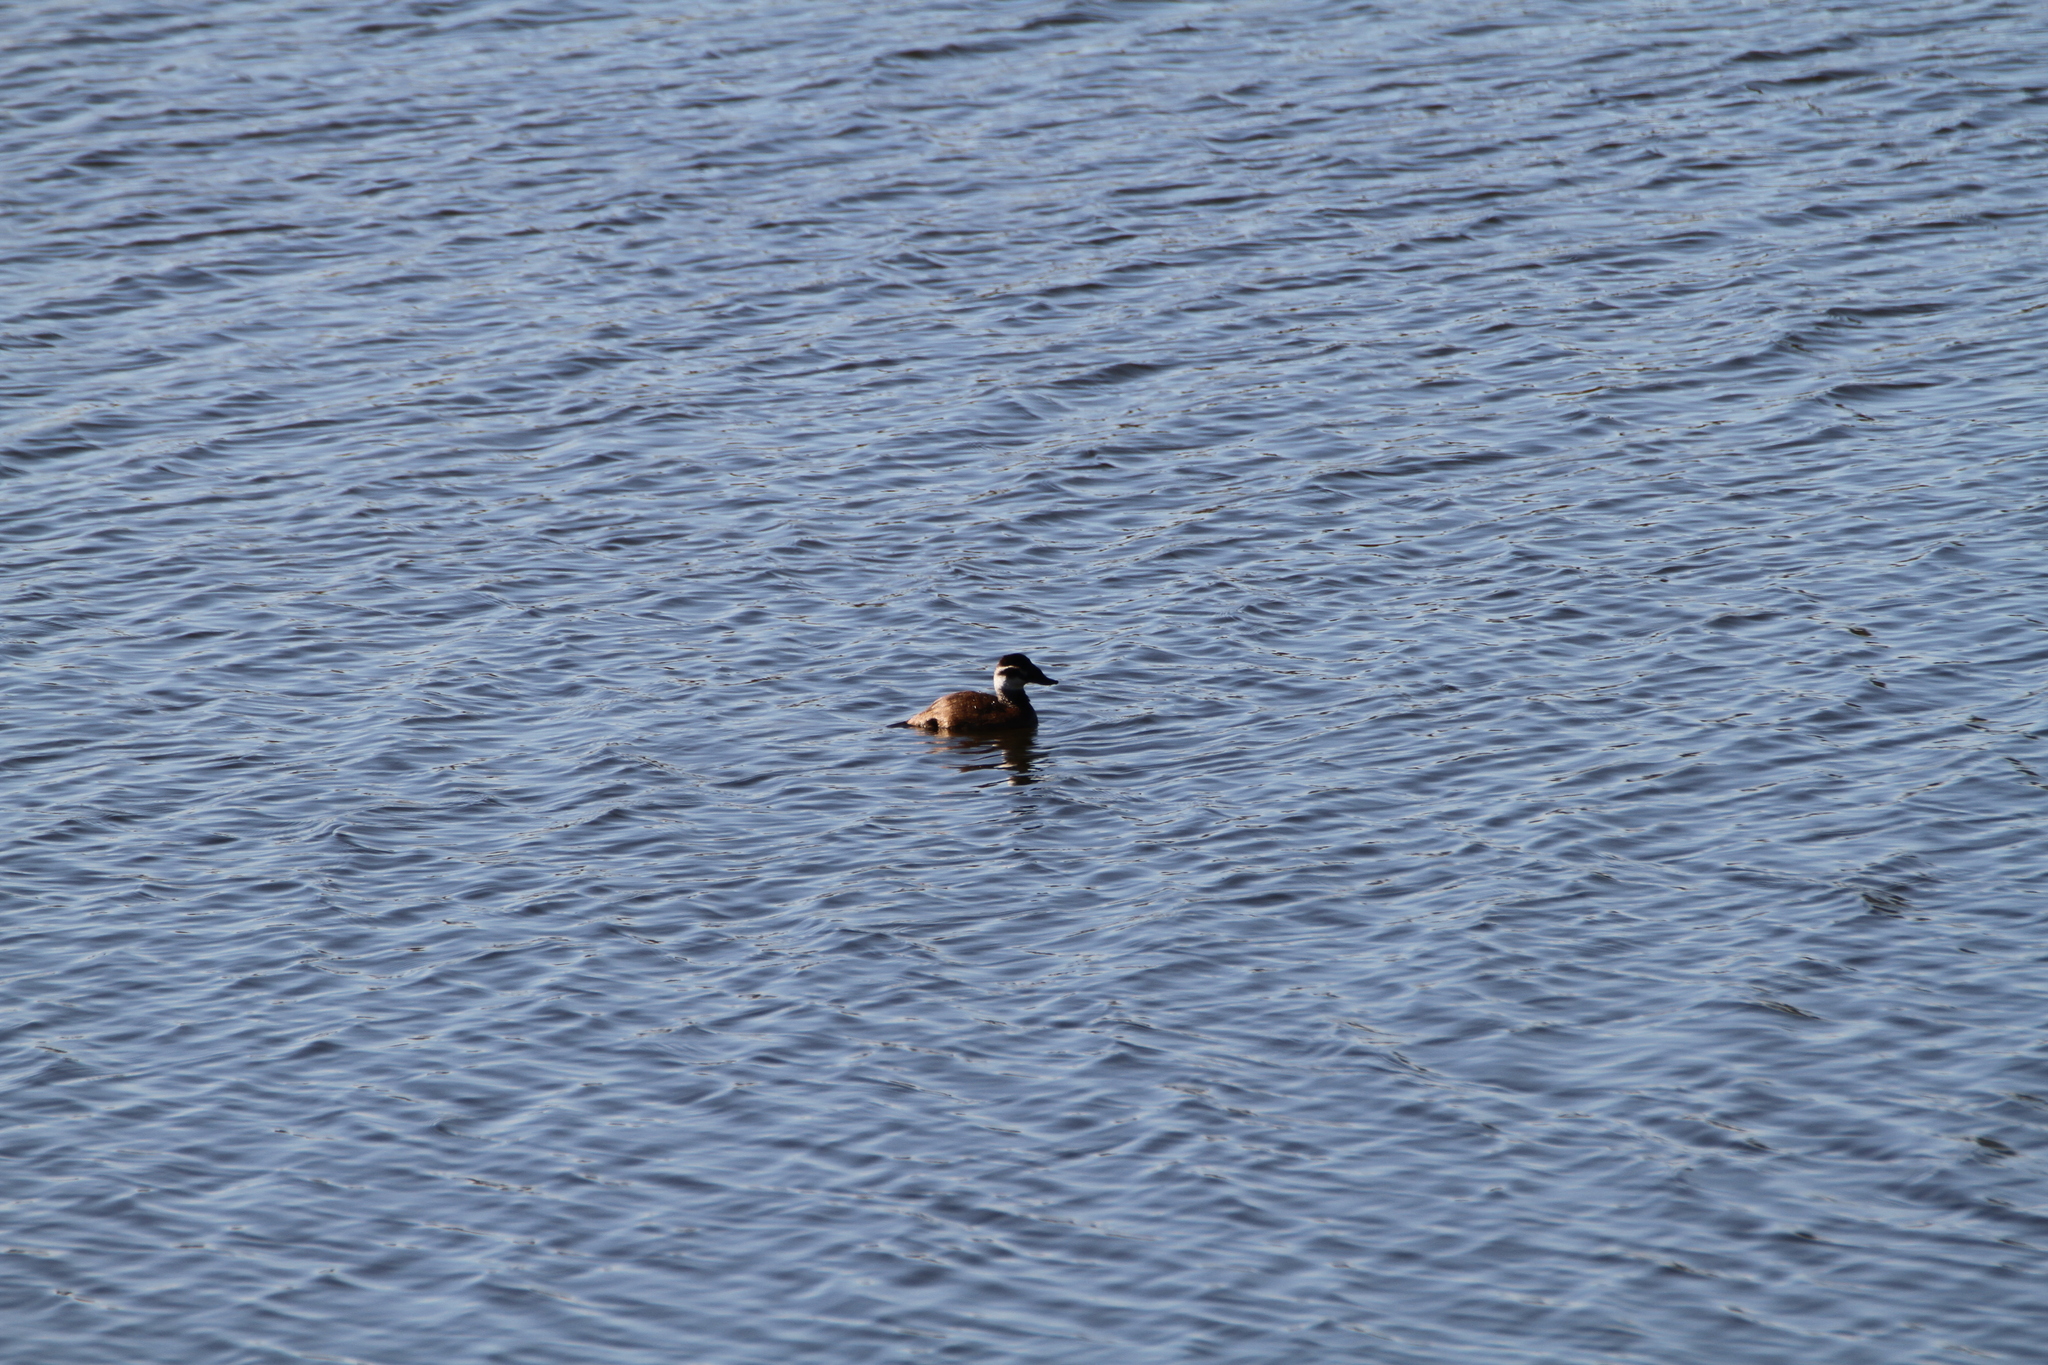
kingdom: Animalia
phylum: Chordata
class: Aves
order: Anseriformes
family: Anatidae
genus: Oxyura
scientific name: Oxyura leucocephala
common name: White-headed duck
